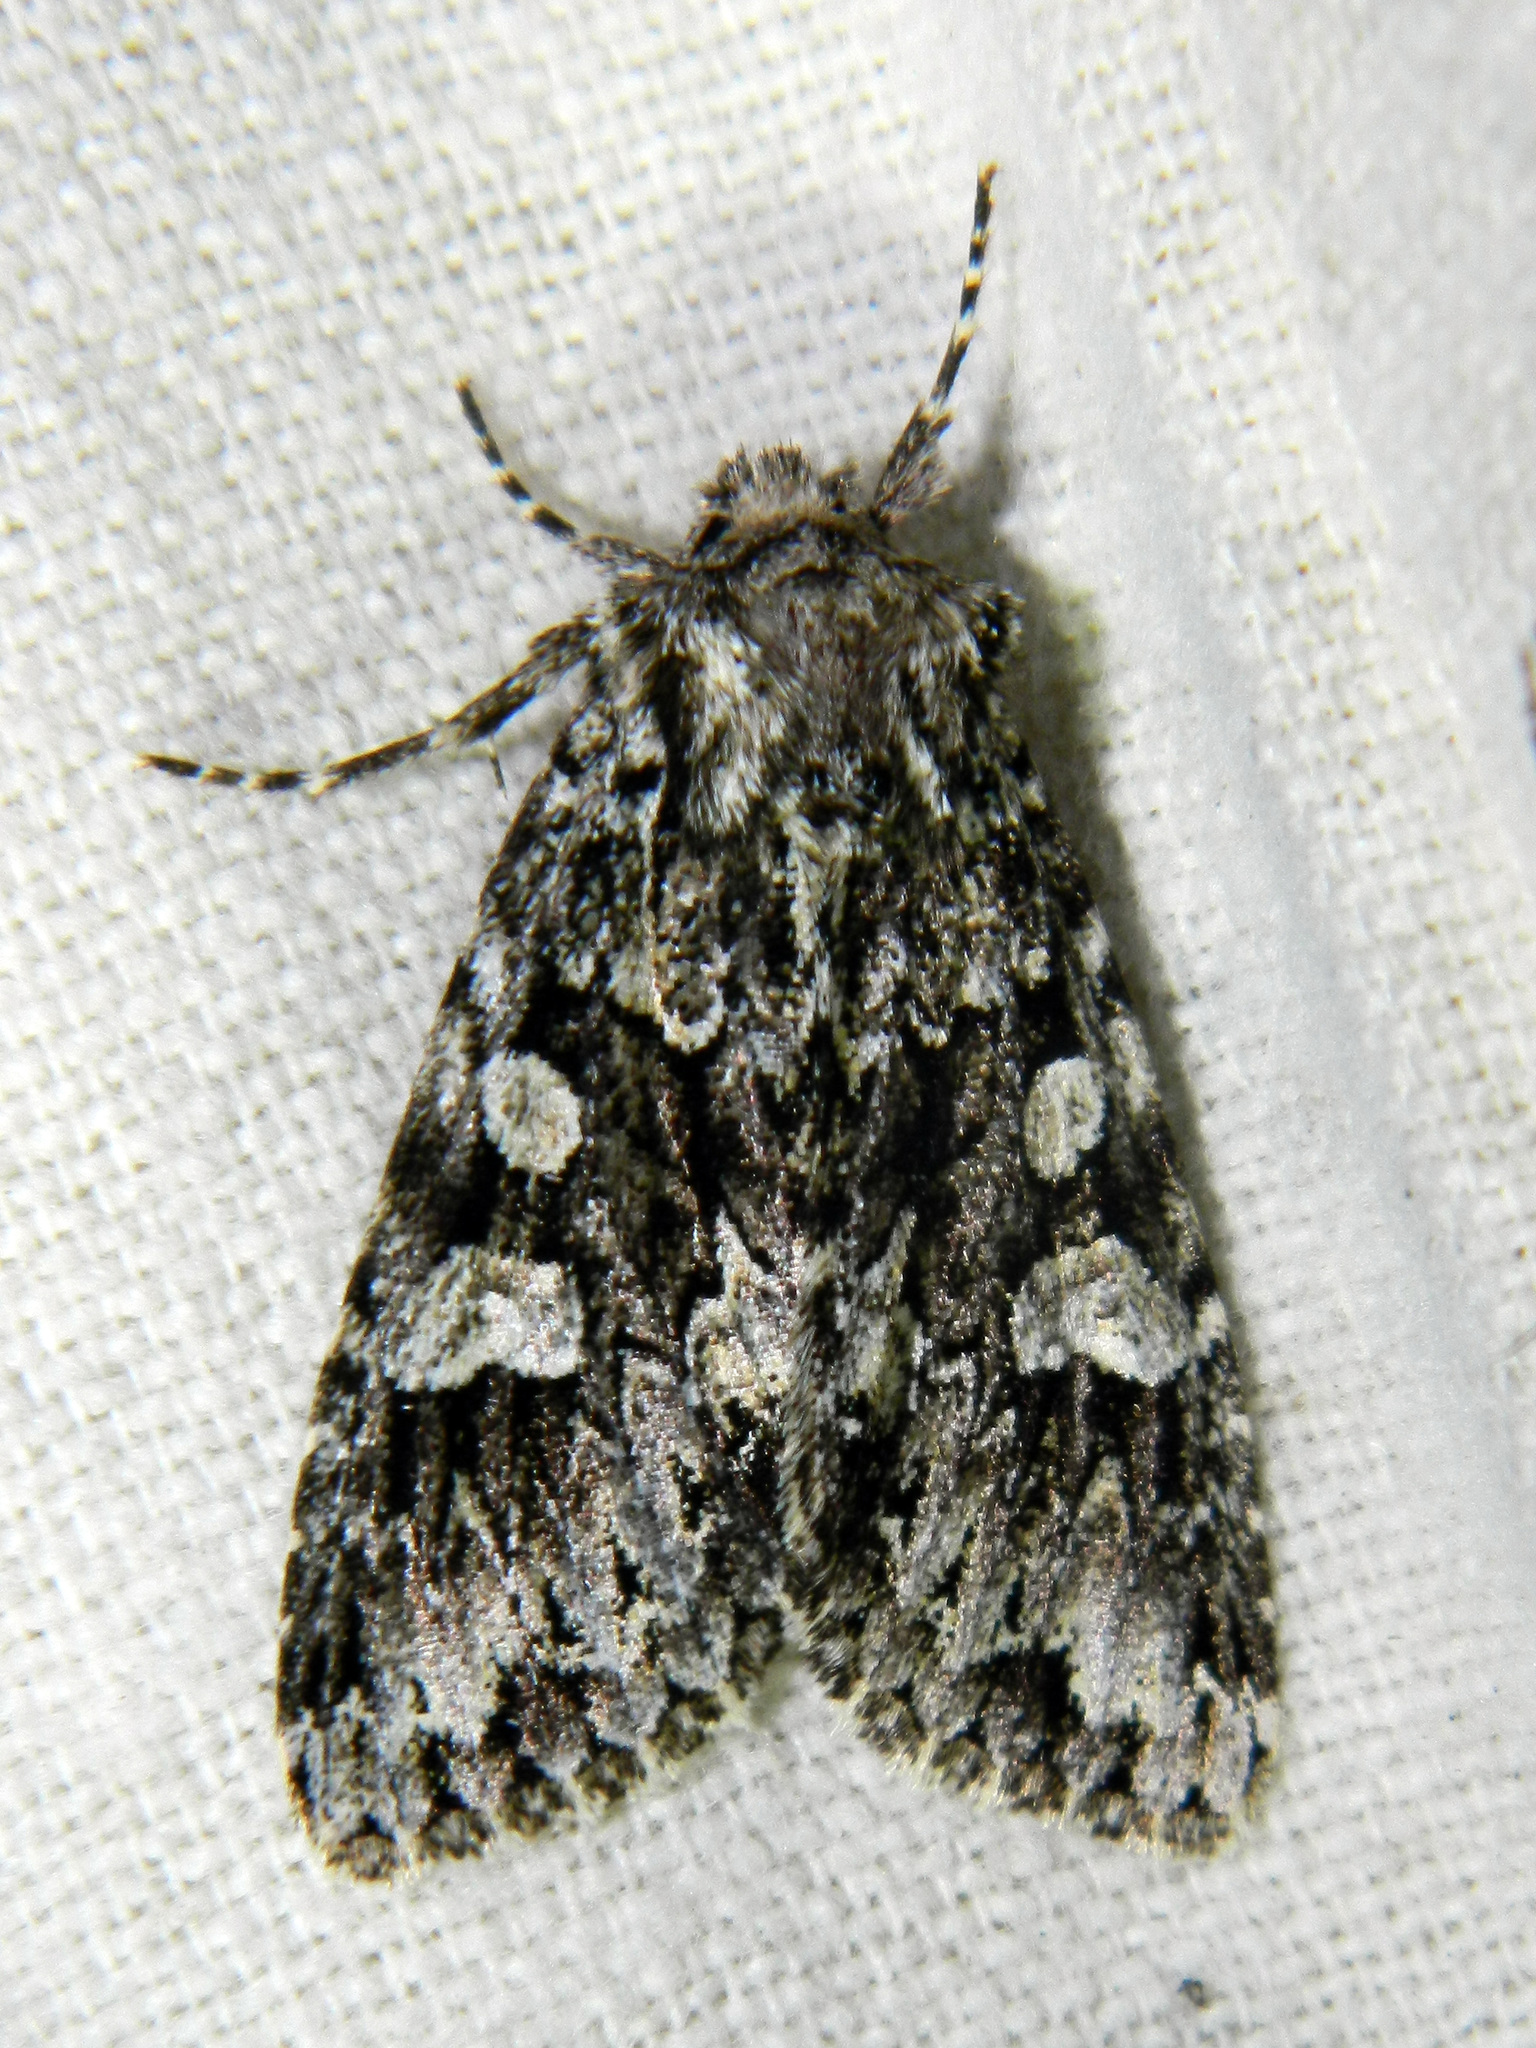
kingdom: Animalia
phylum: Arthropoda
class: Insecta
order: Lepidoptera
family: Noctuidae
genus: Platypolia
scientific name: Platypolia anceps
